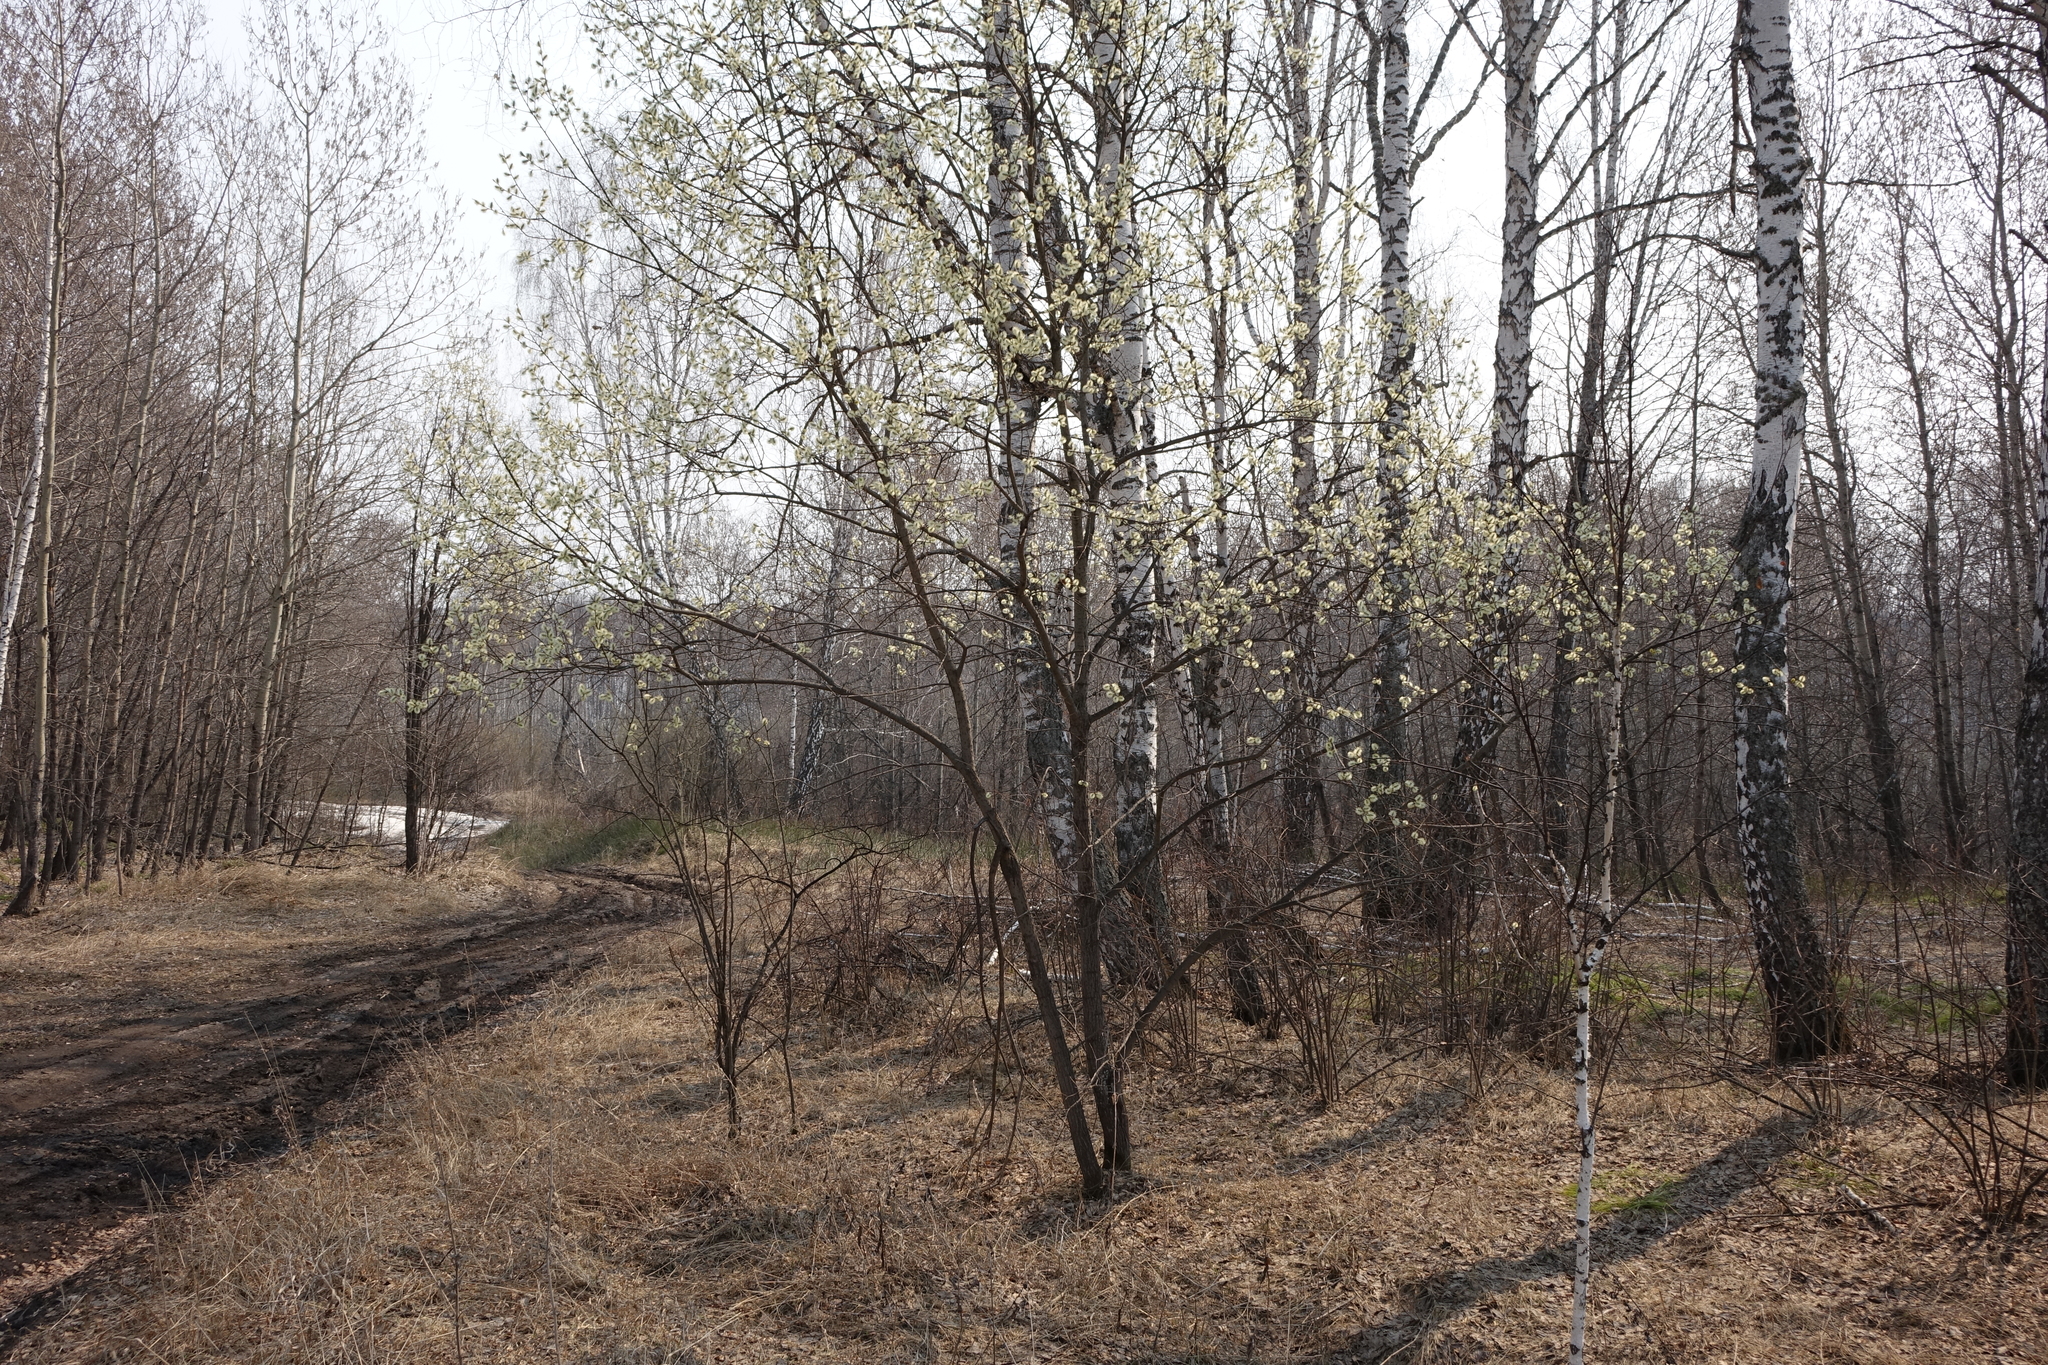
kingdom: Plantae
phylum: Tracheophyta
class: Magnoliopsida
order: Malpighiales
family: Salicaceae
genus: Salix
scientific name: Salix caprea
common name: Goat willow
